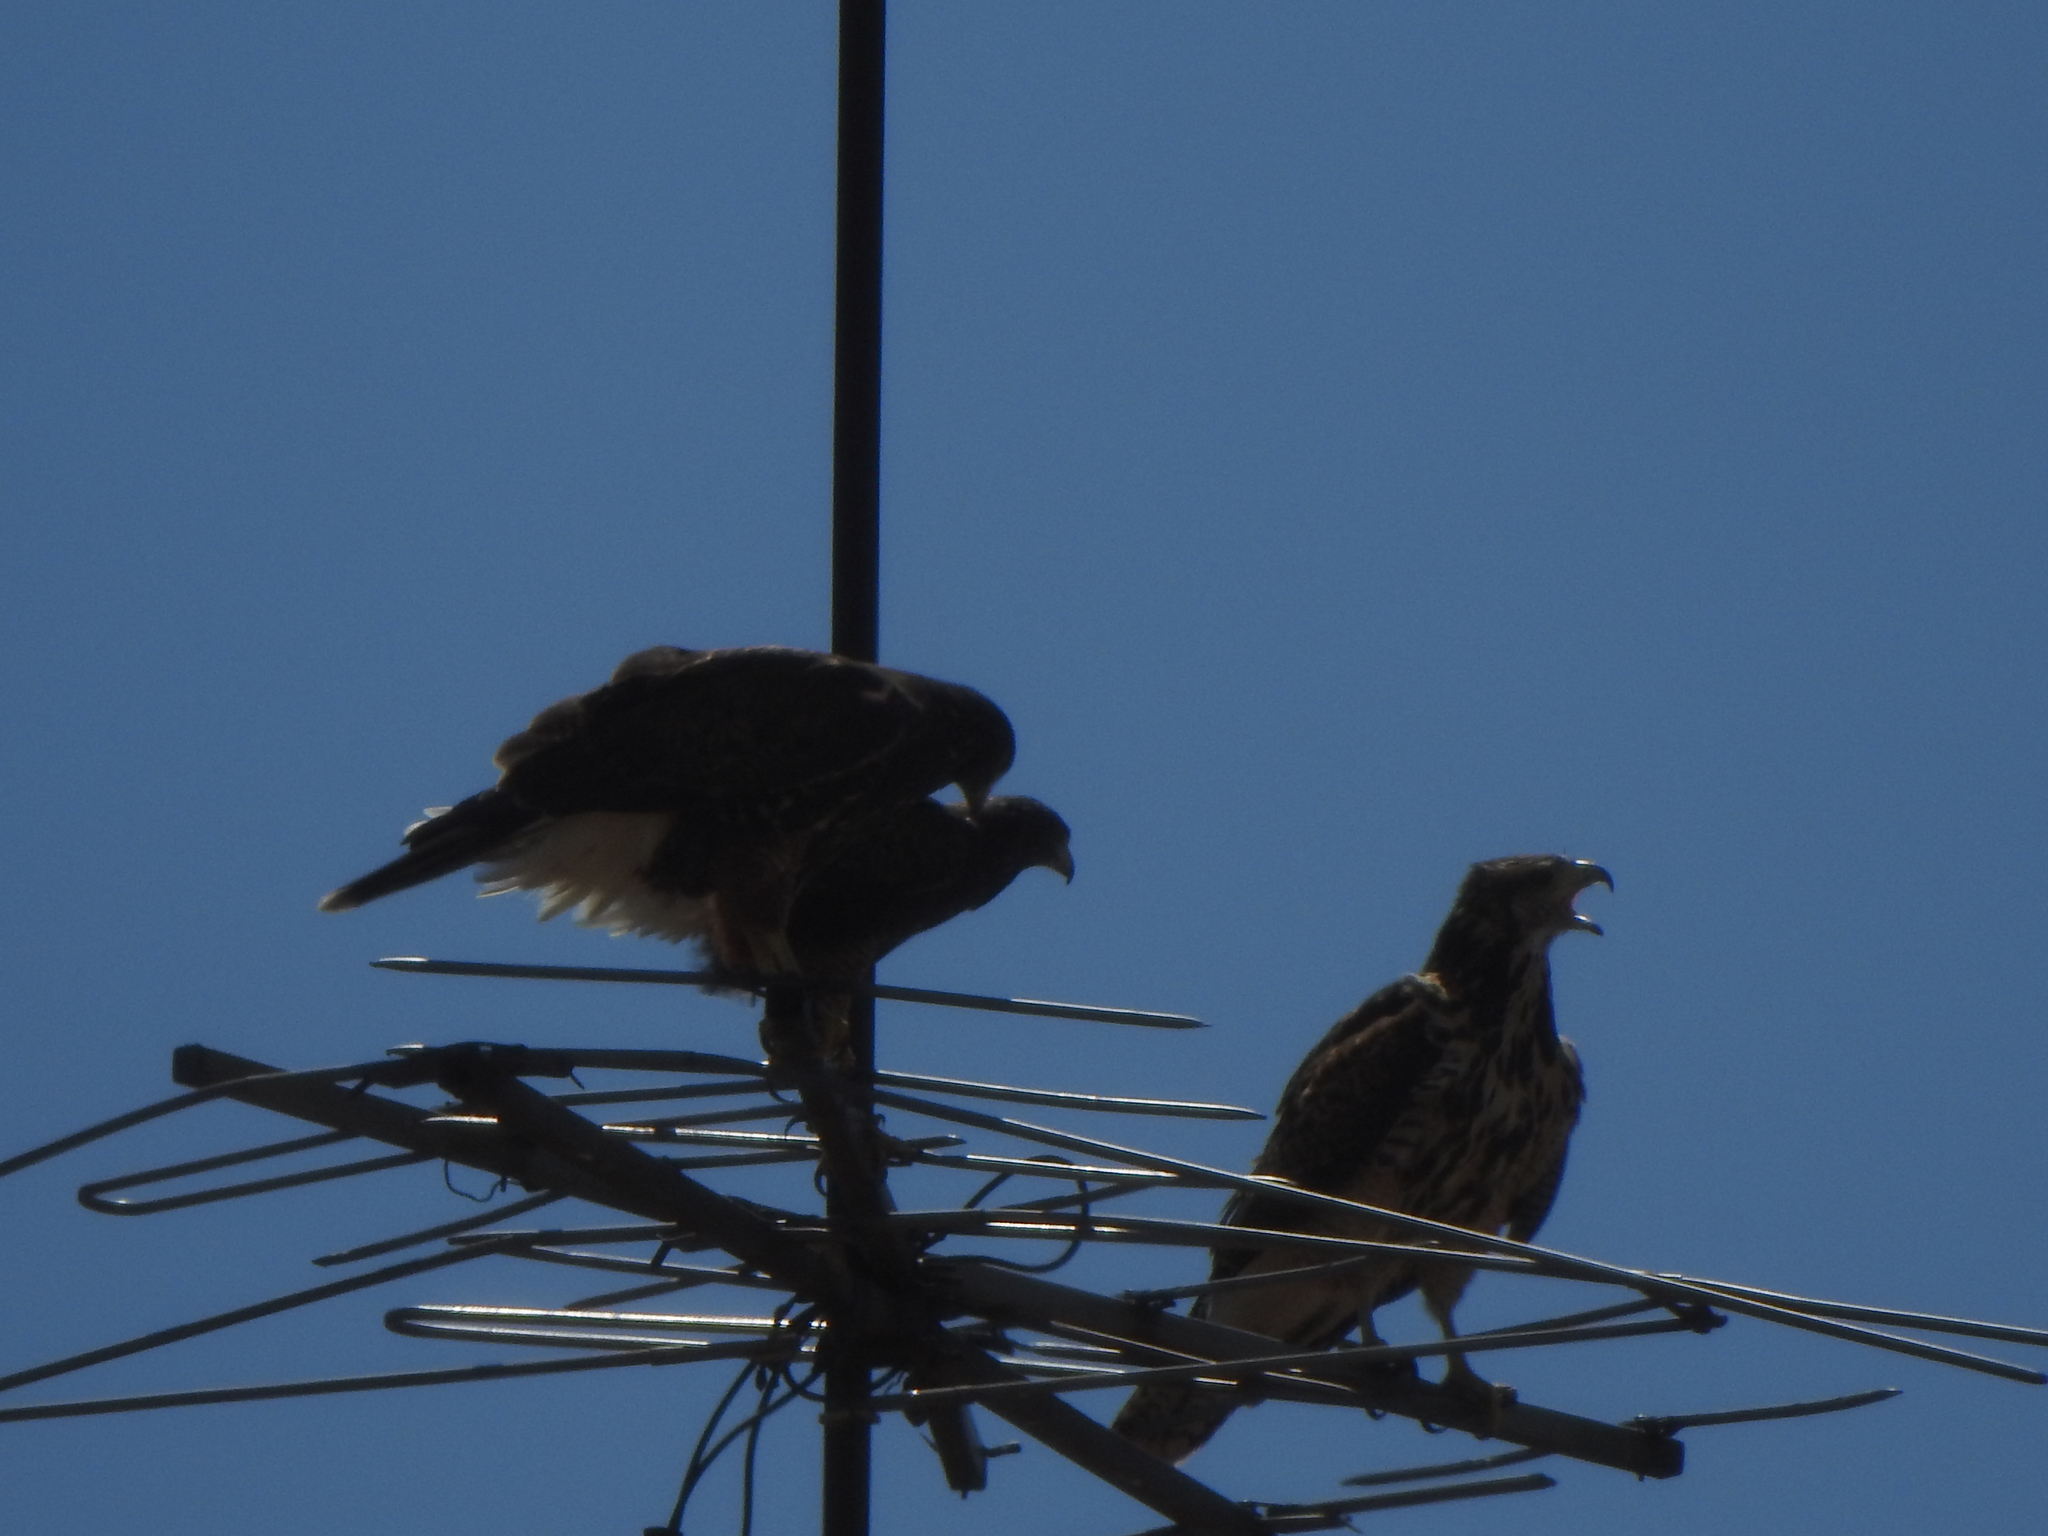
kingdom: Animalia
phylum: Chordata
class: Aves
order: Accipitriformes
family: Accipitridae
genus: Parabuteo
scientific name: Parabuteo unicinctus
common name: Harris's hawk
